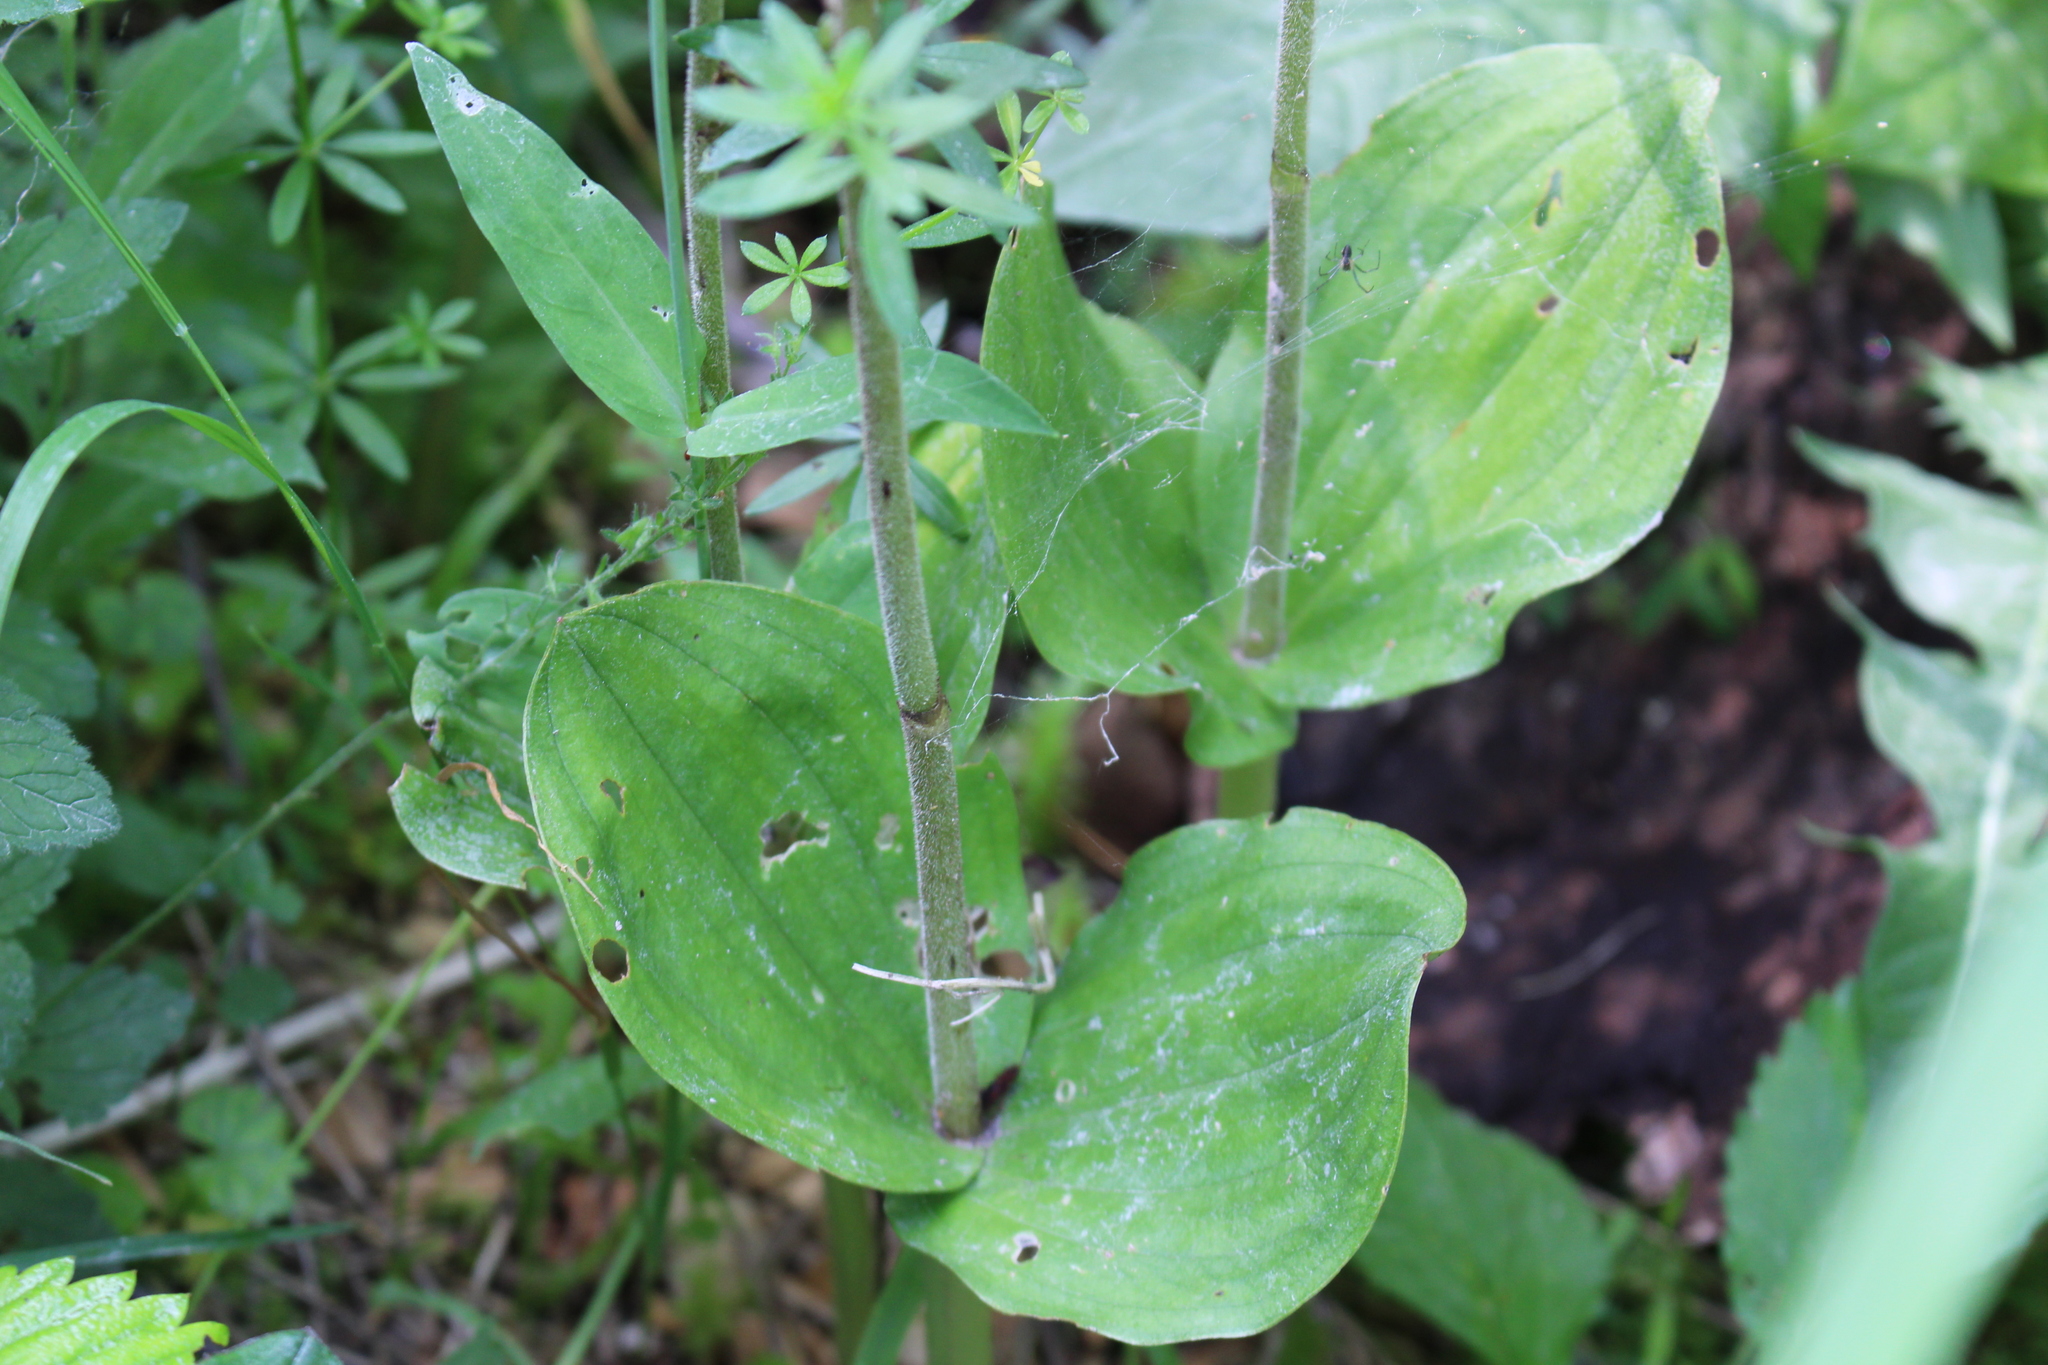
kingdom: Plantae
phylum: Tracheophyta
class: Liliopsida
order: Asparagales
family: Orchidaceae
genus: Neottia
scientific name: Neottia ovata
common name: Common twayblade
